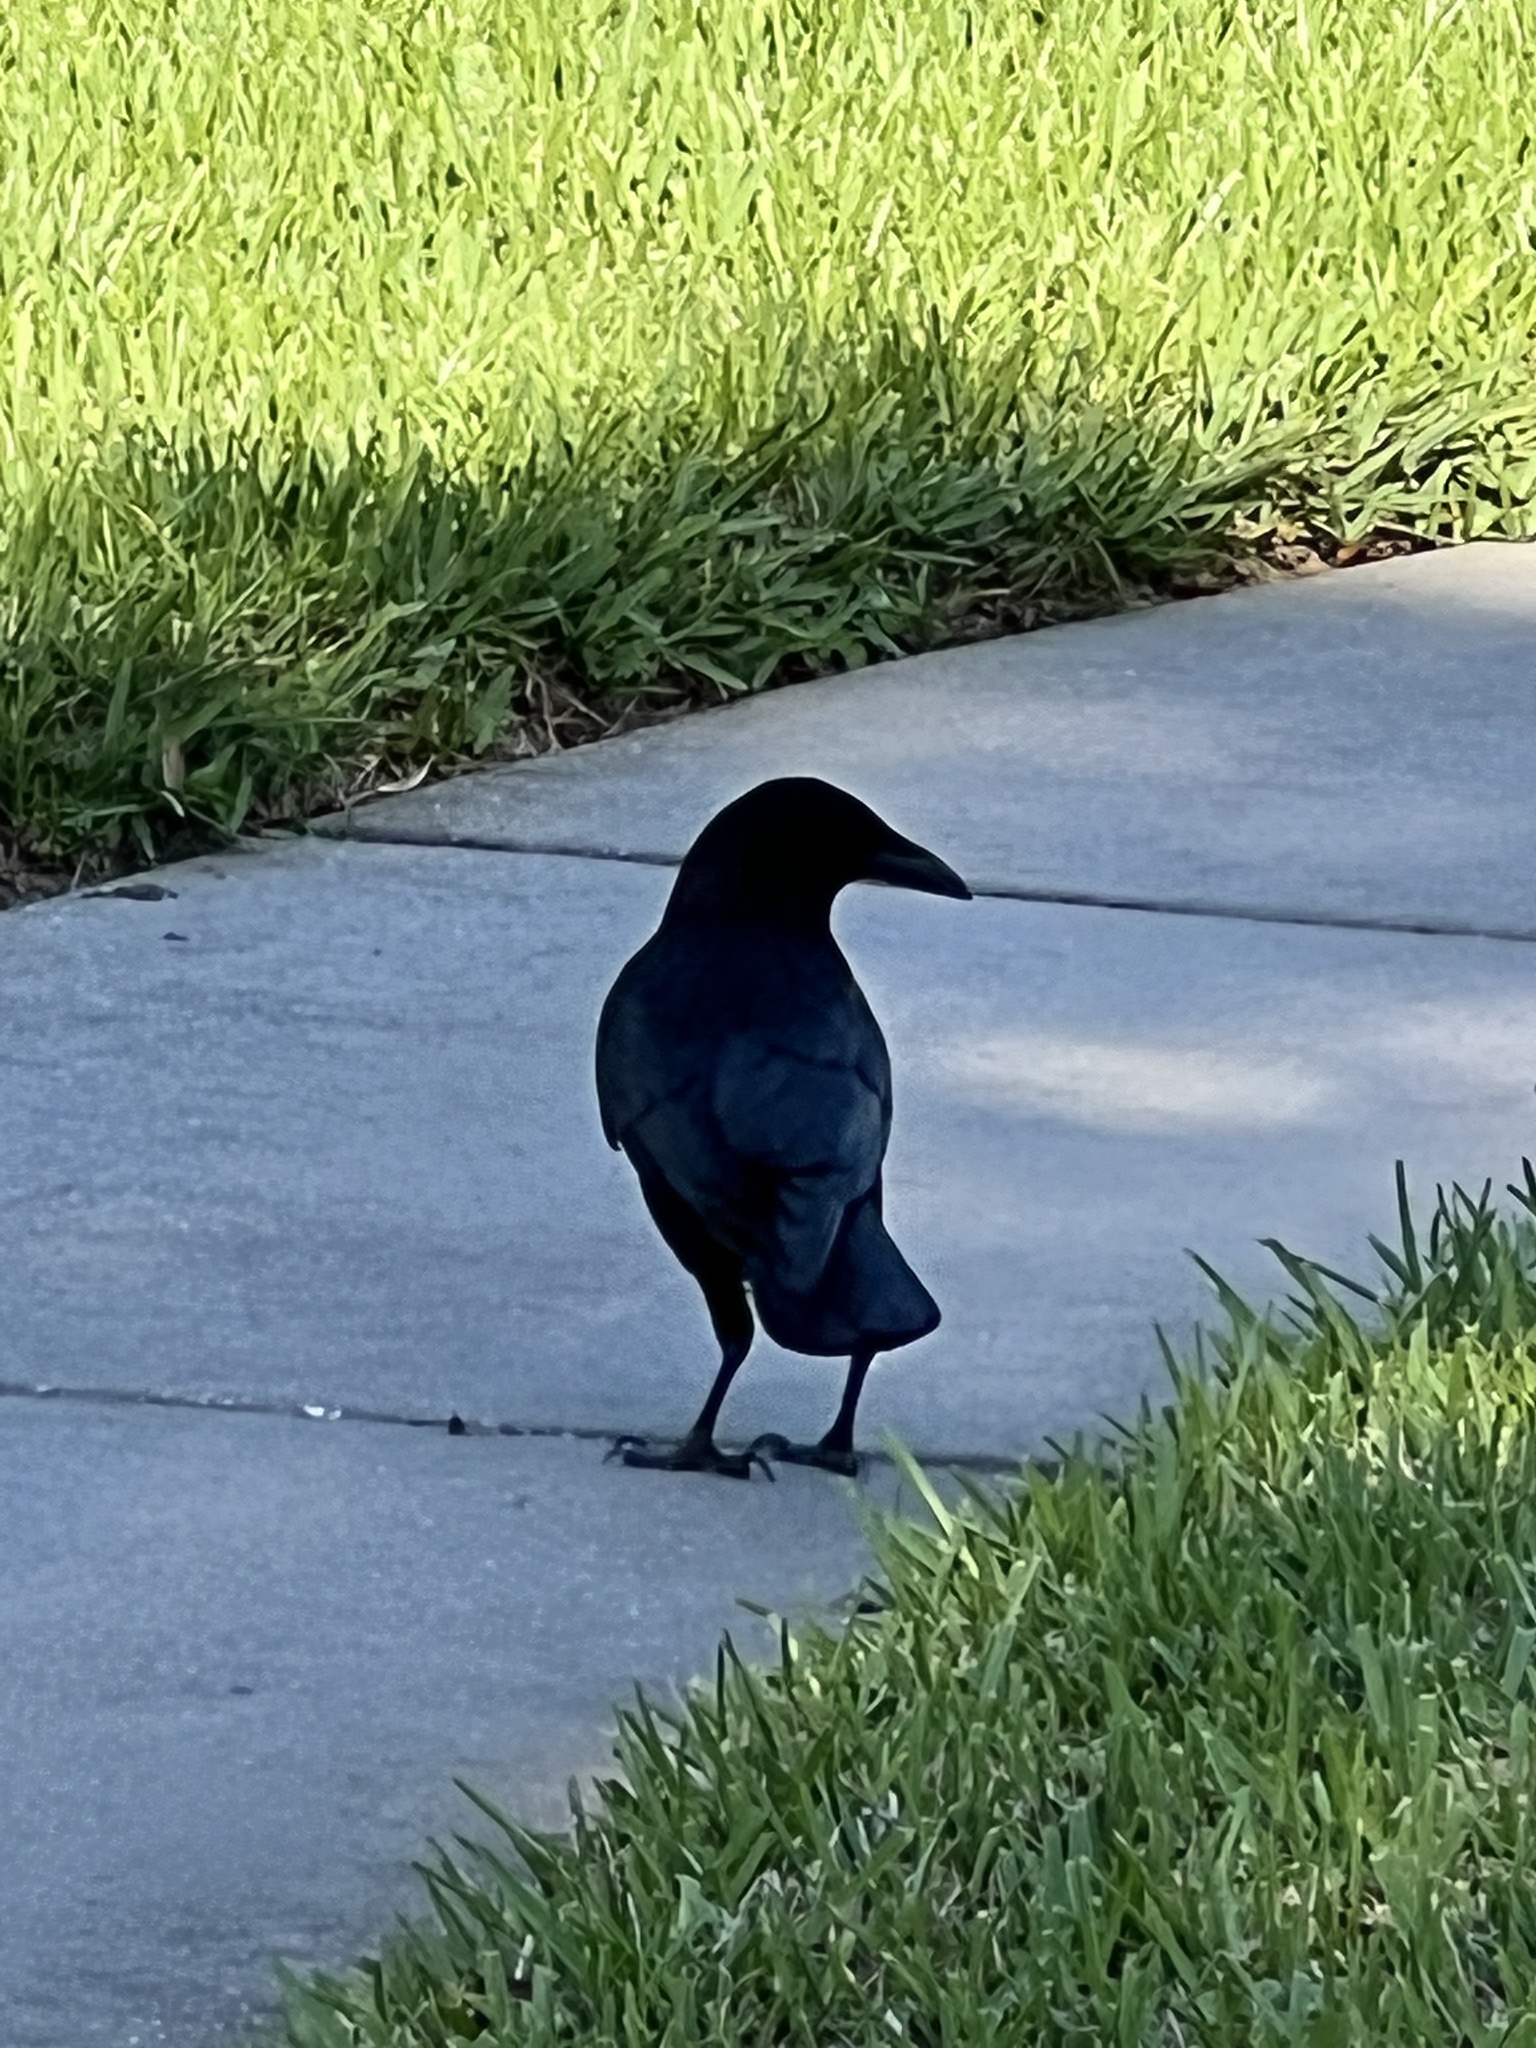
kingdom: Animalia
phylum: Chordata
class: Aves
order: Passeriformes
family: Corvidae
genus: Corvus
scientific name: Corvus
